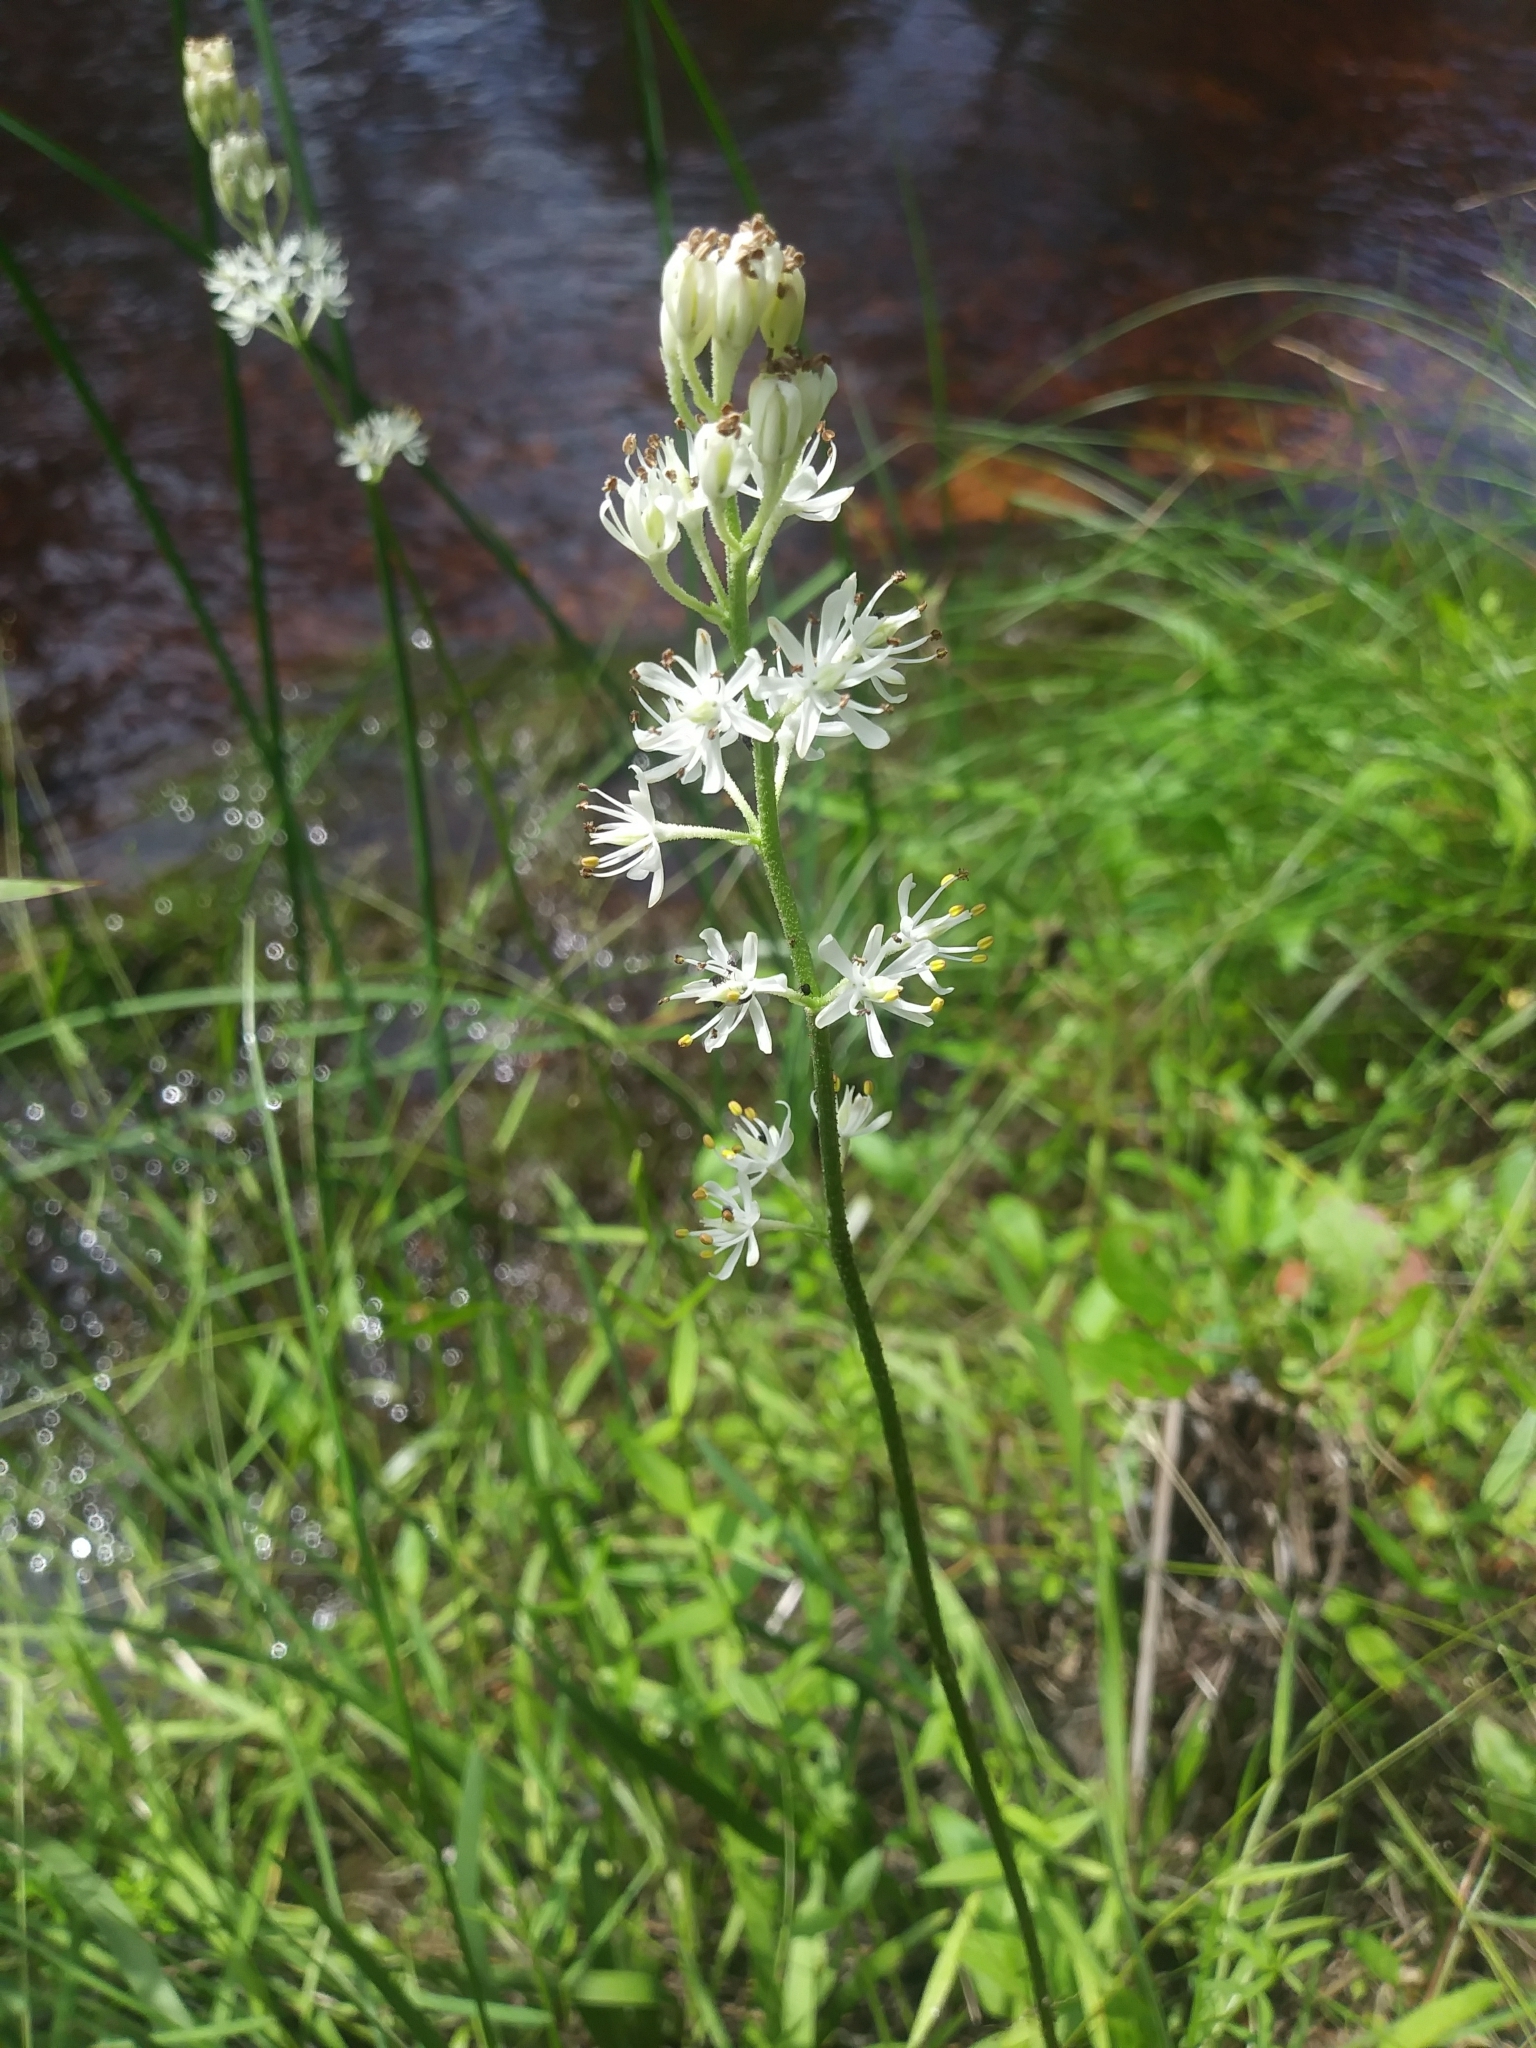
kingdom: Plantae
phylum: Tracheophyta
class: Liliopsida
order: Alismatales
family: Tofieldiaceae
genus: Triantha
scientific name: Triantha racemosa
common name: Coastal false asphodel
